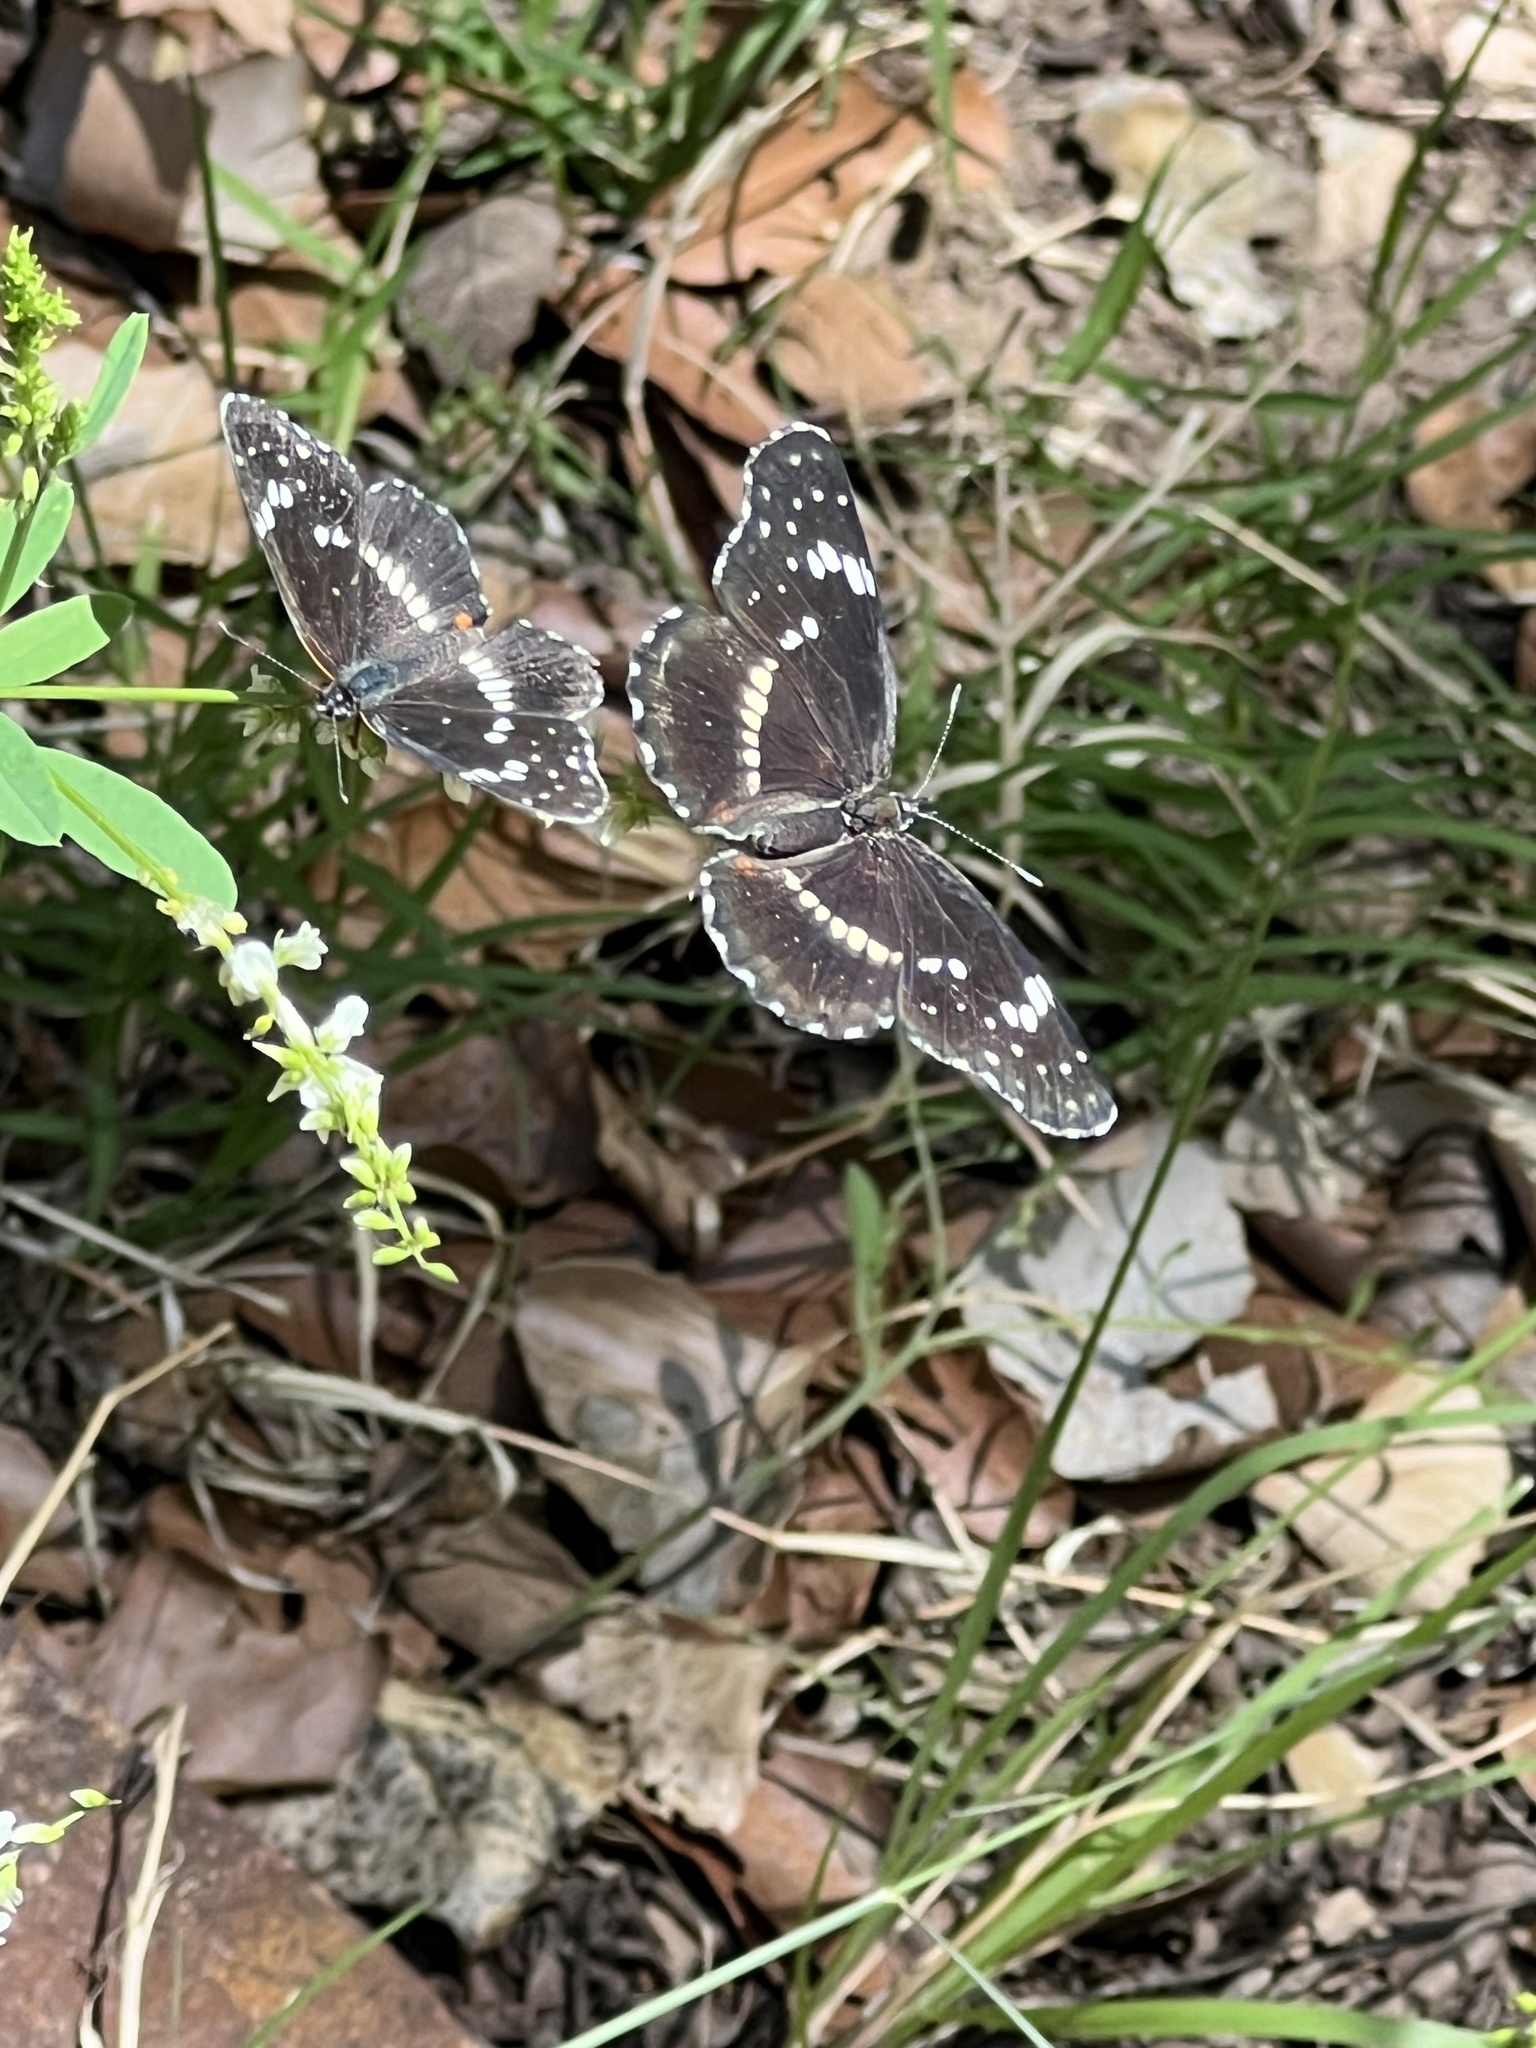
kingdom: Animalia
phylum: Arthropoda
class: Insecta
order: Lepidoptera
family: Nymphalidae
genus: Chlosyne
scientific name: Chlosyne lacinia
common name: Bordered patch
